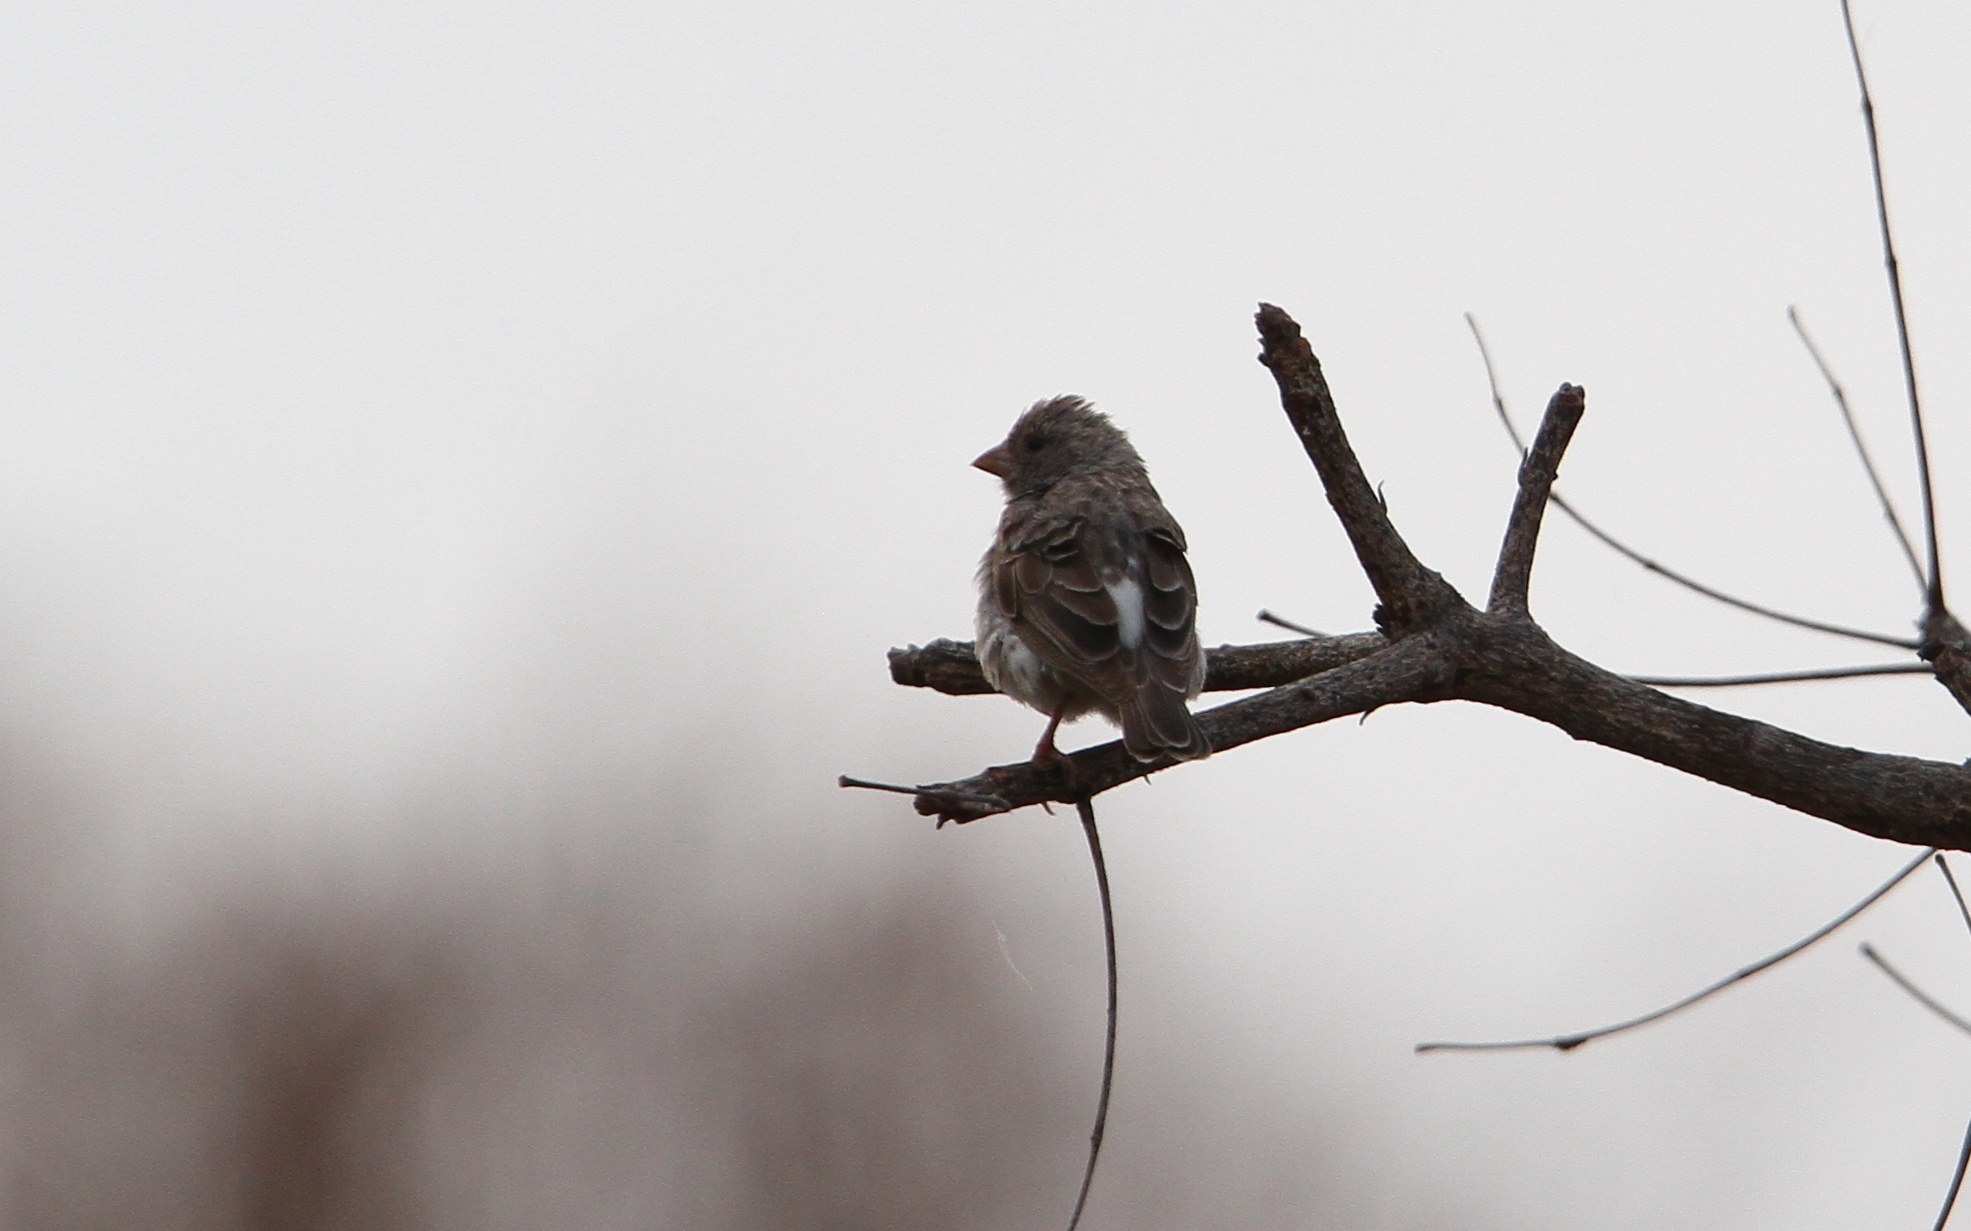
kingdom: Animalia
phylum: Chordata
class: Aves
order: Passeriformes
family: Fringillidae
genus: Crithagra
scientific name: Crithagra leucopygia
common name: White-rumped seedeater
